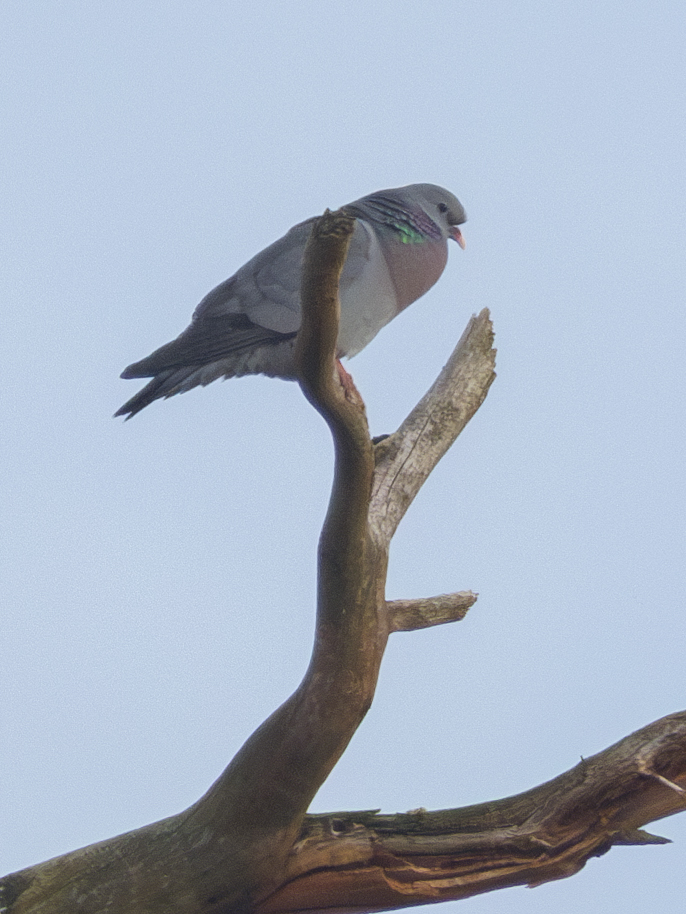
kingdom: Animalia
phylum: Chordata
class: Aves
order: Columbiformes
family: Columbidae
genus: Columba
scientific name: Columba oenas
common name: Stock dove
